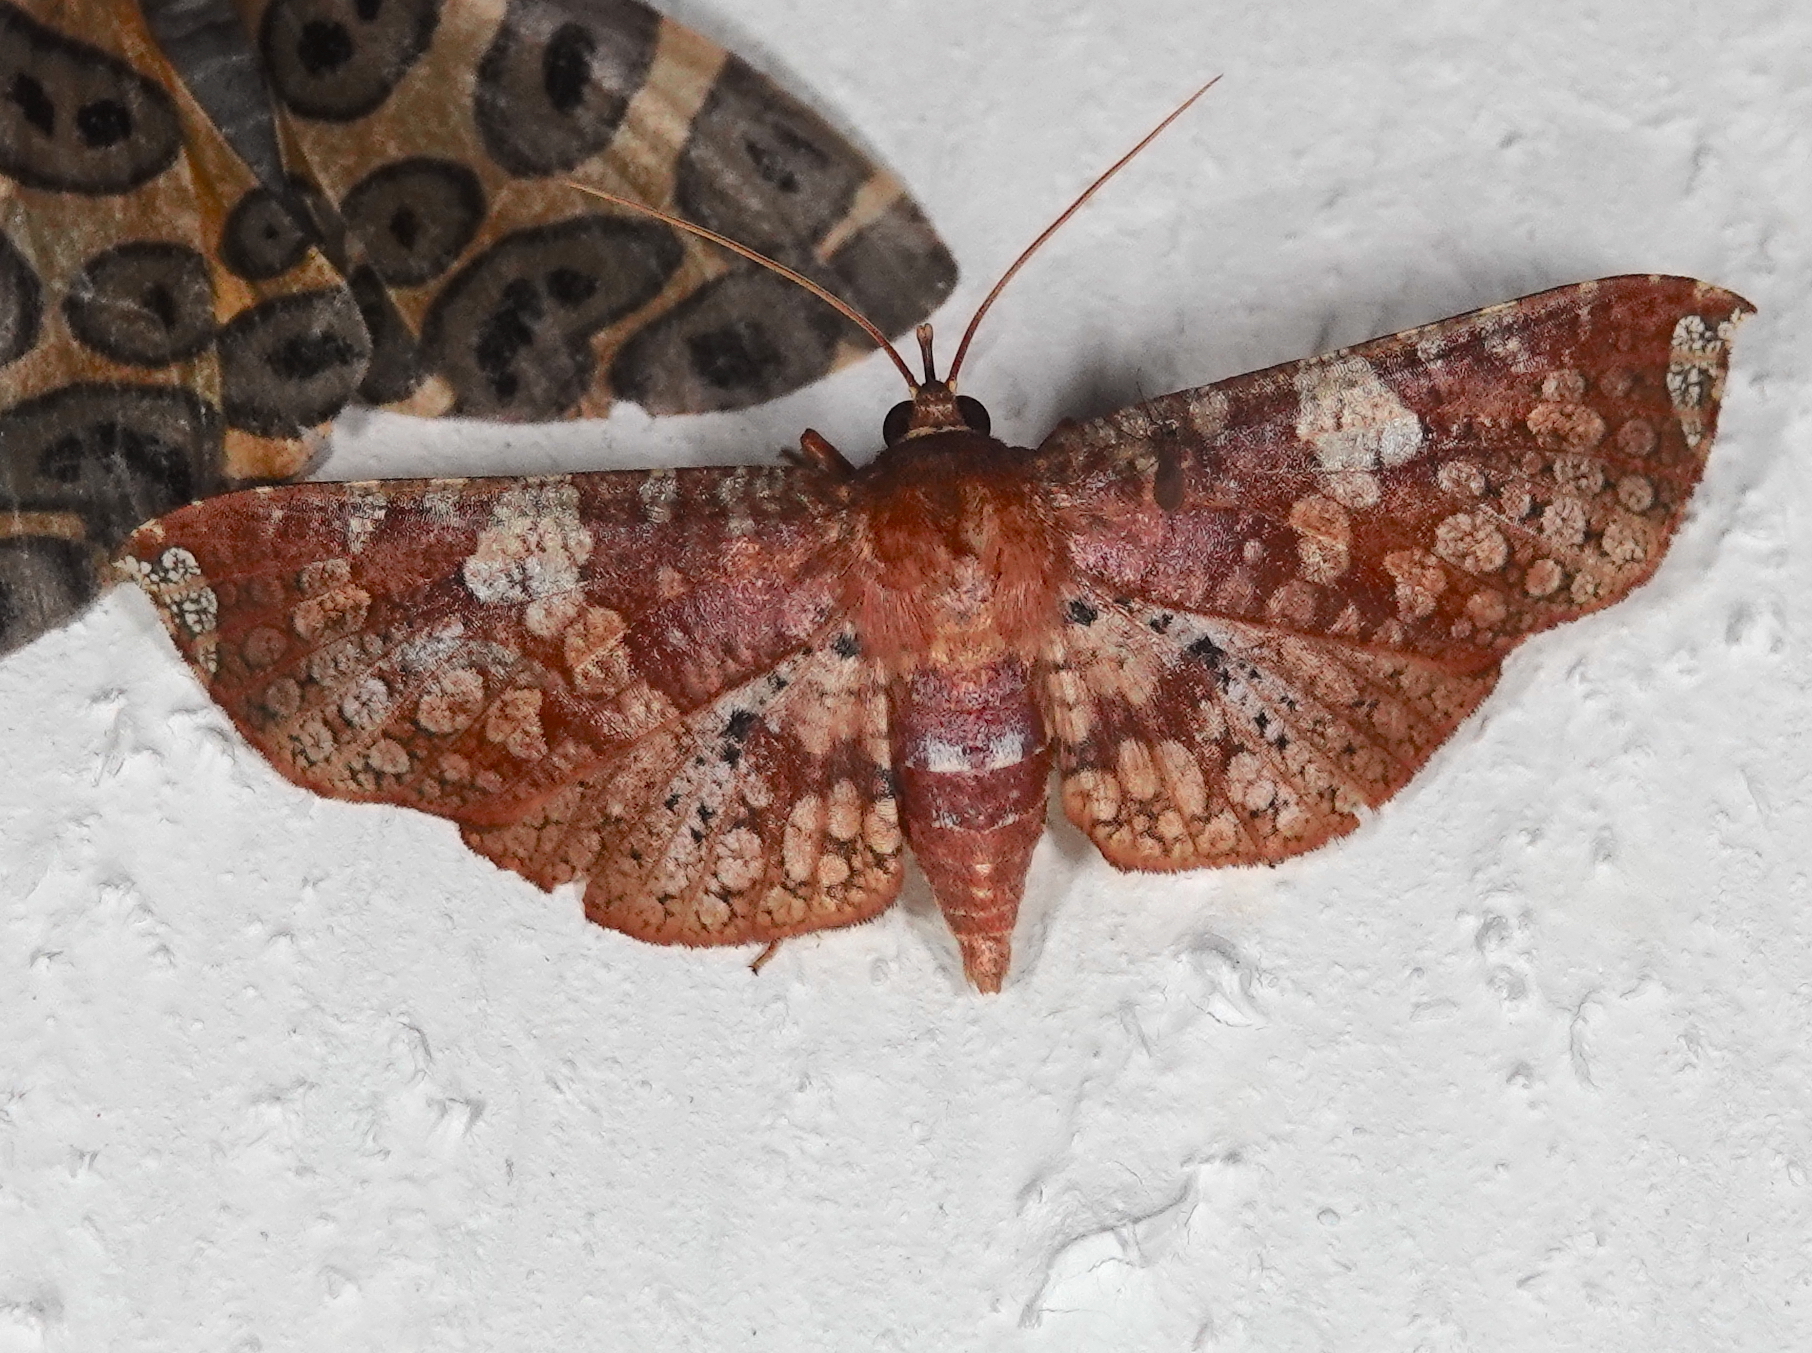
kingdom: Animalia
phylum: Arthropoda
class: Insecta
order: Lepidoptera
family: Thyrididae
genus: Rhodoneura
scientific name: Rhodoneura nebulosa
